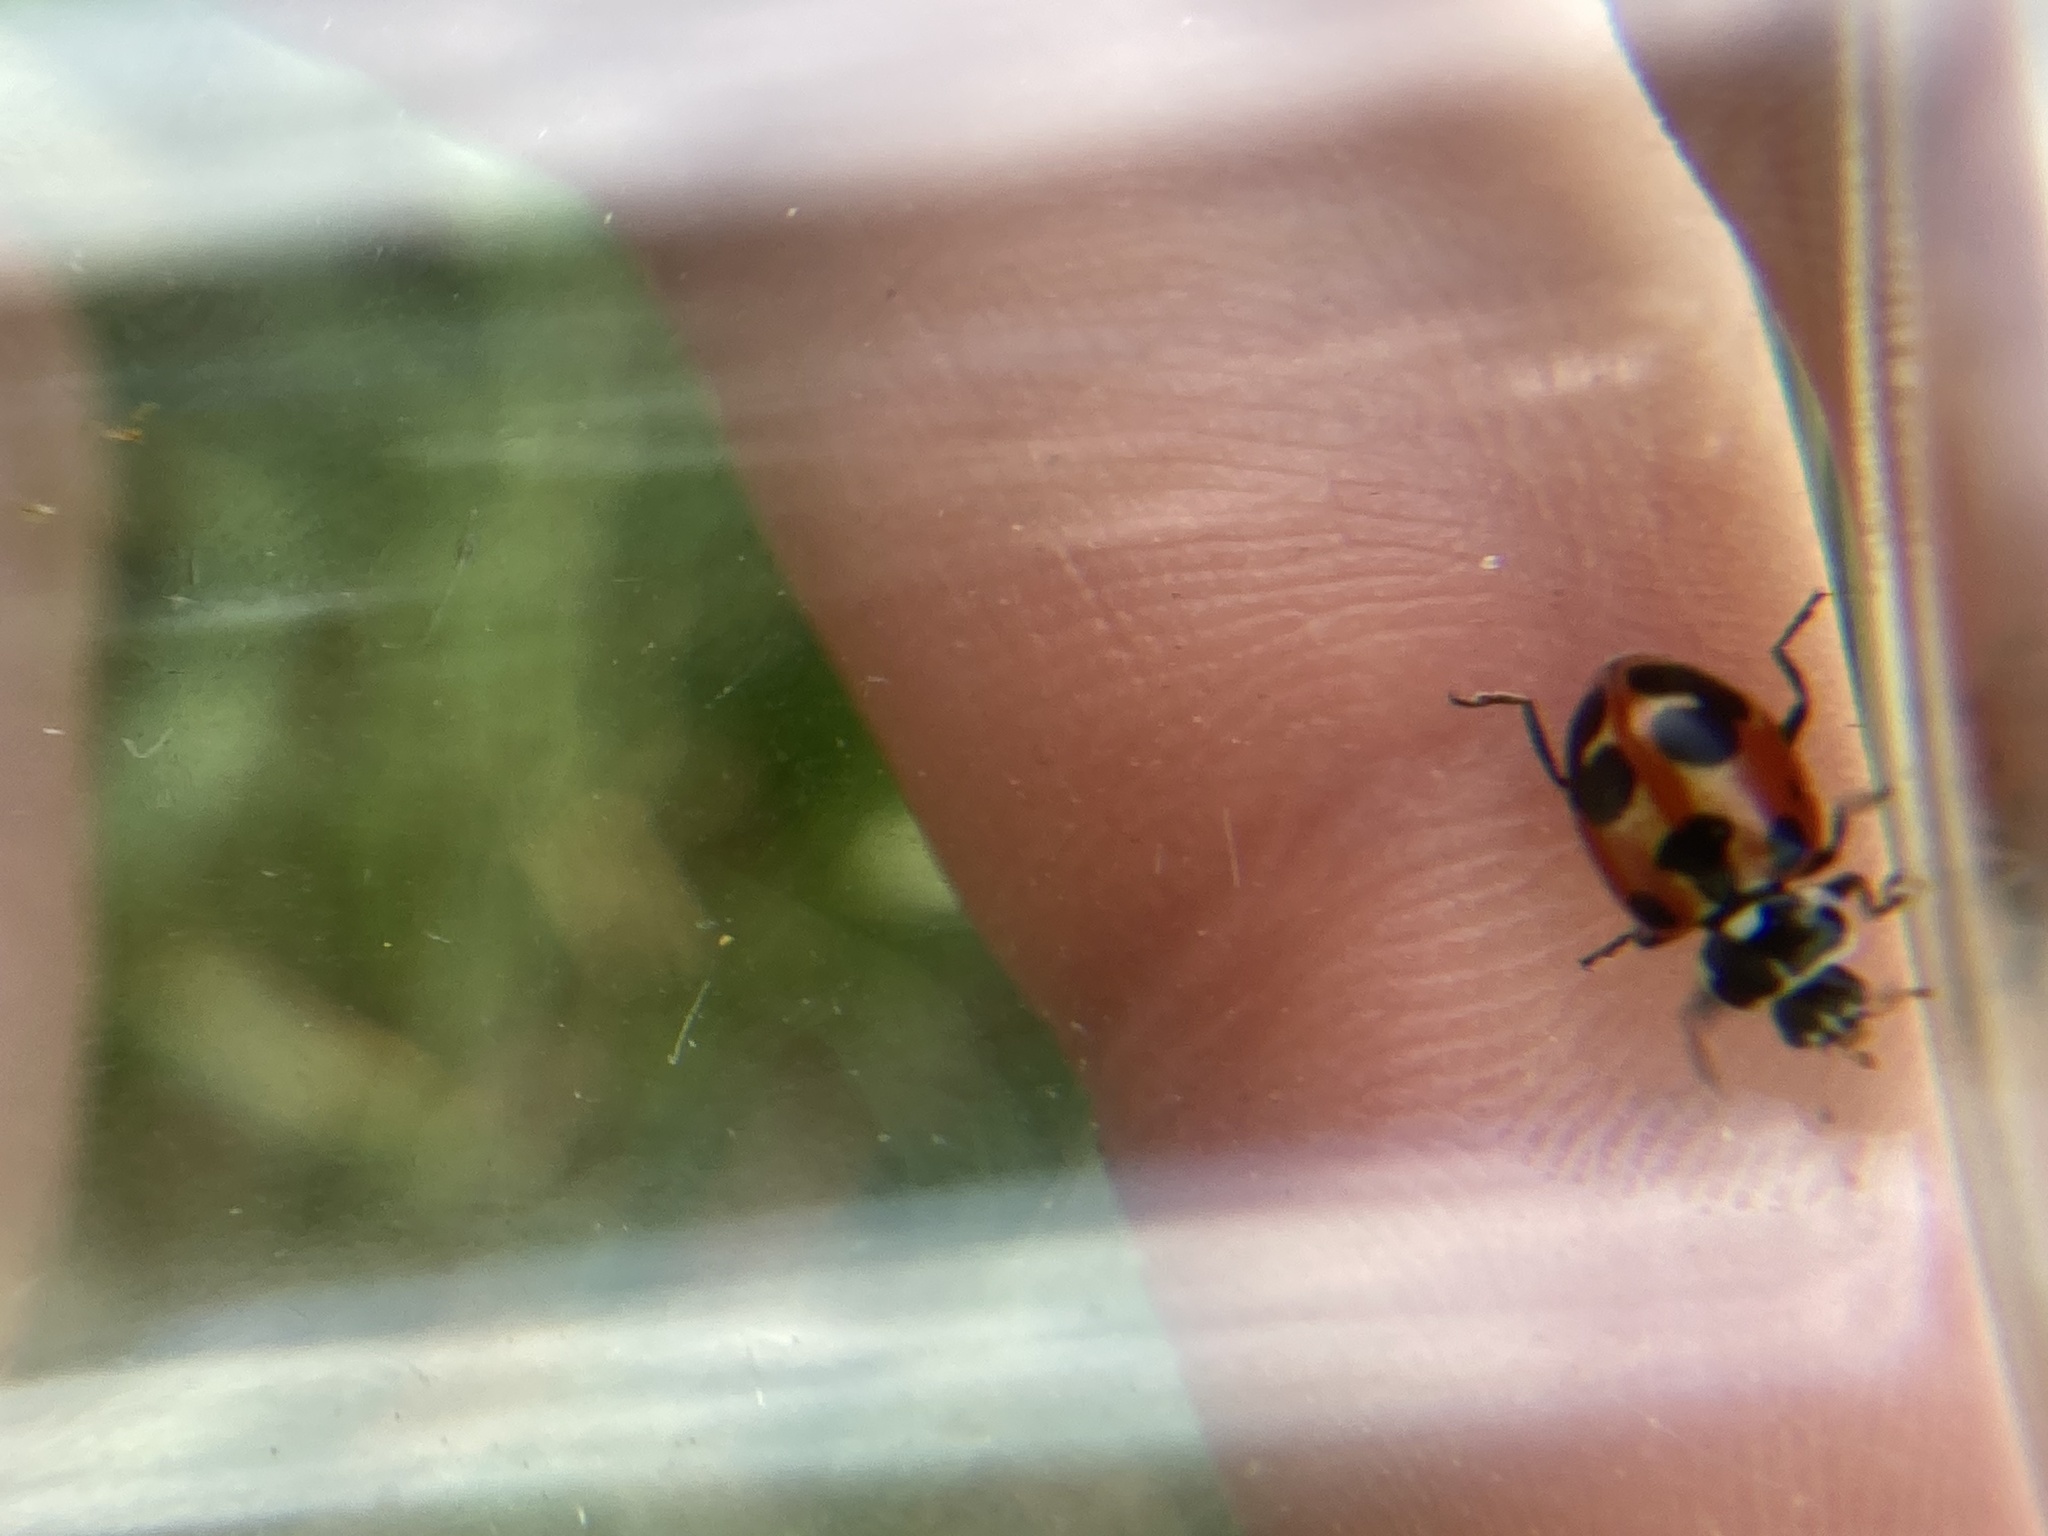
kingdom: Animalia
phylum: Arthropoda
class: Insecta
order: Coleoptera
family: Coccinellidae
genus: Hippodamia
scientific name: Hippodamia parenthesis
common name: Parenthesis lady beetle
